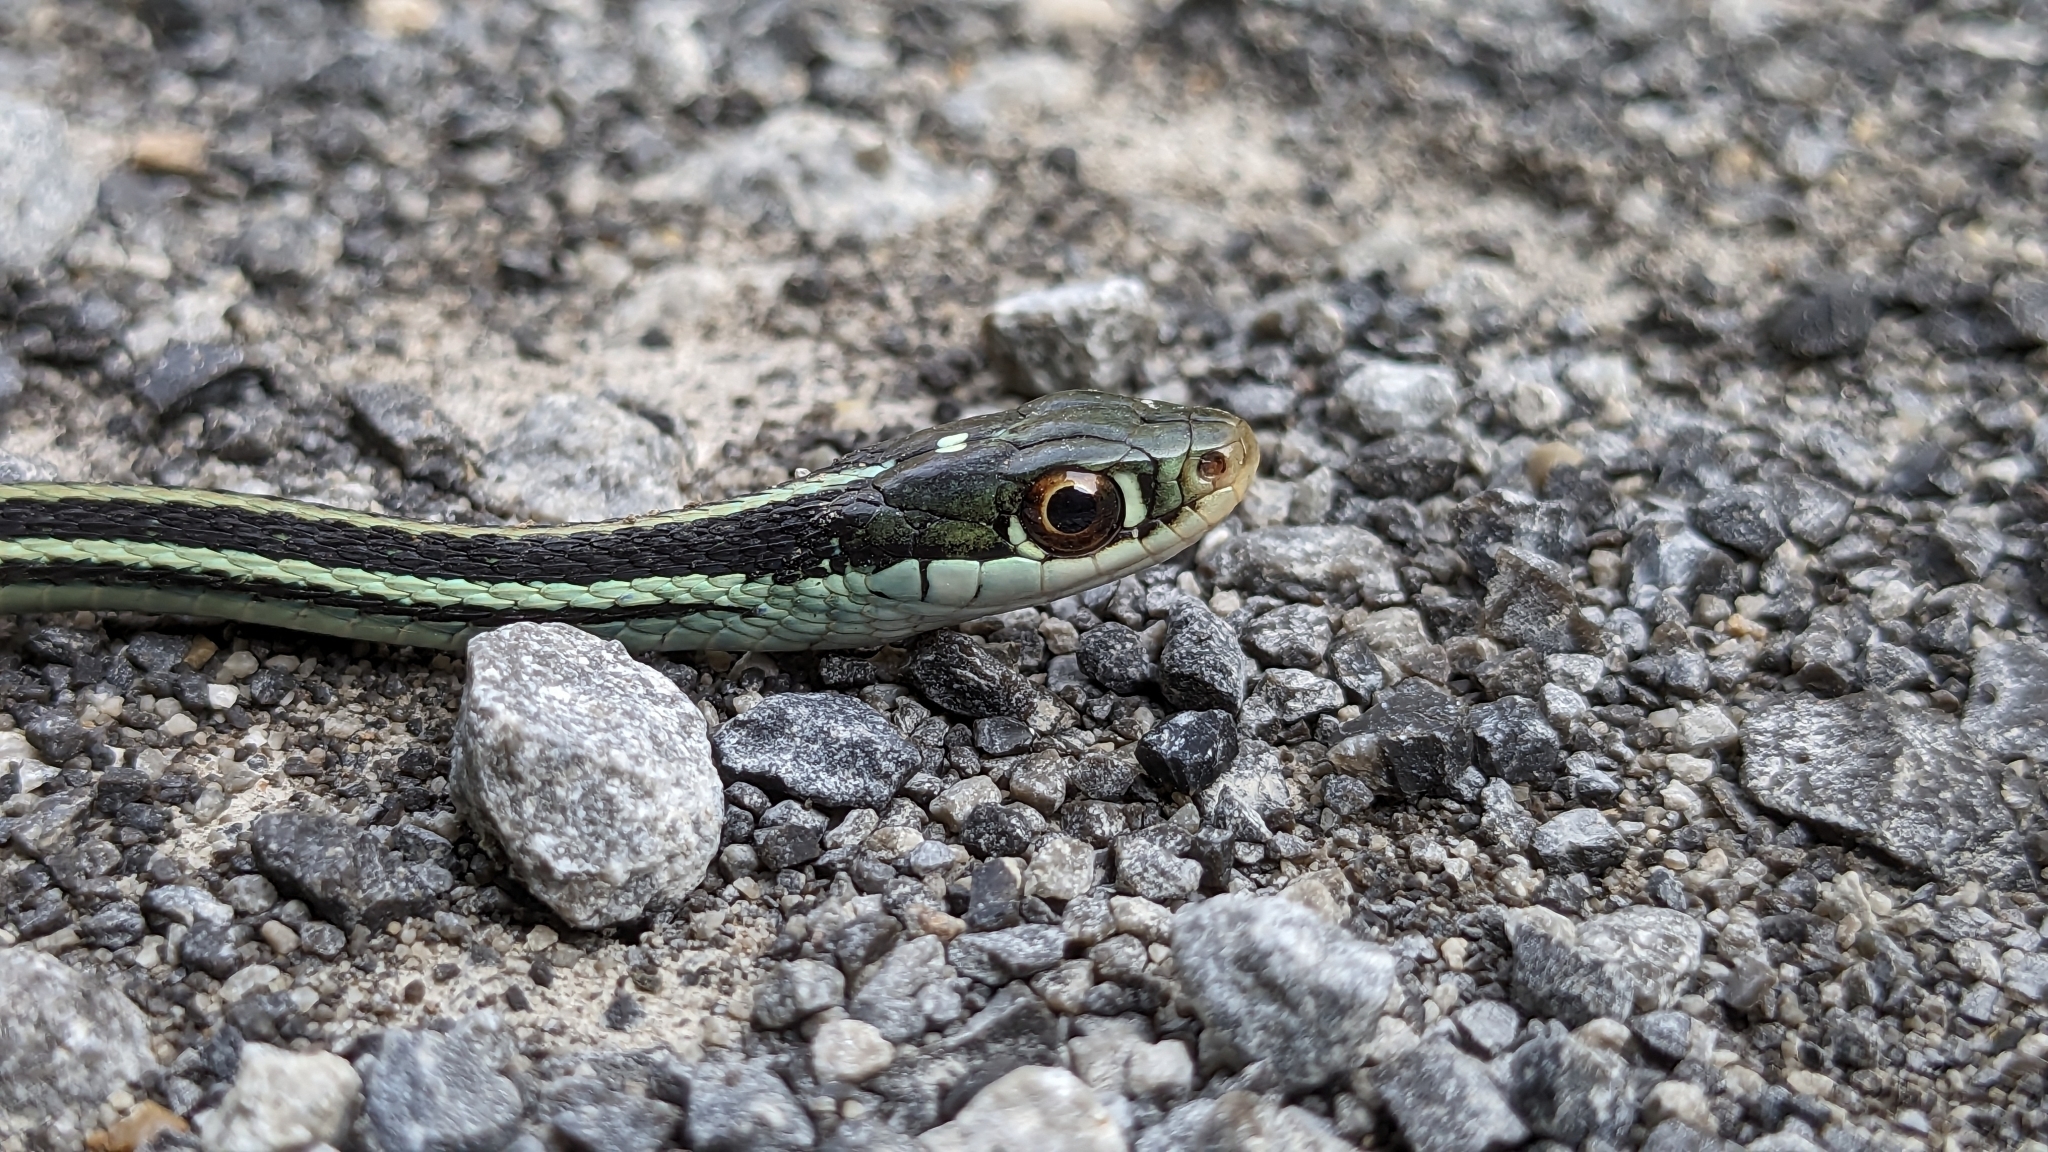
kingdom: Animalia
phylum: Chordata
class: Squamata
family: Colubridae
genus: Thamnophis
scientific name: Thamnophis proximus
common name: Western ribbon snake
